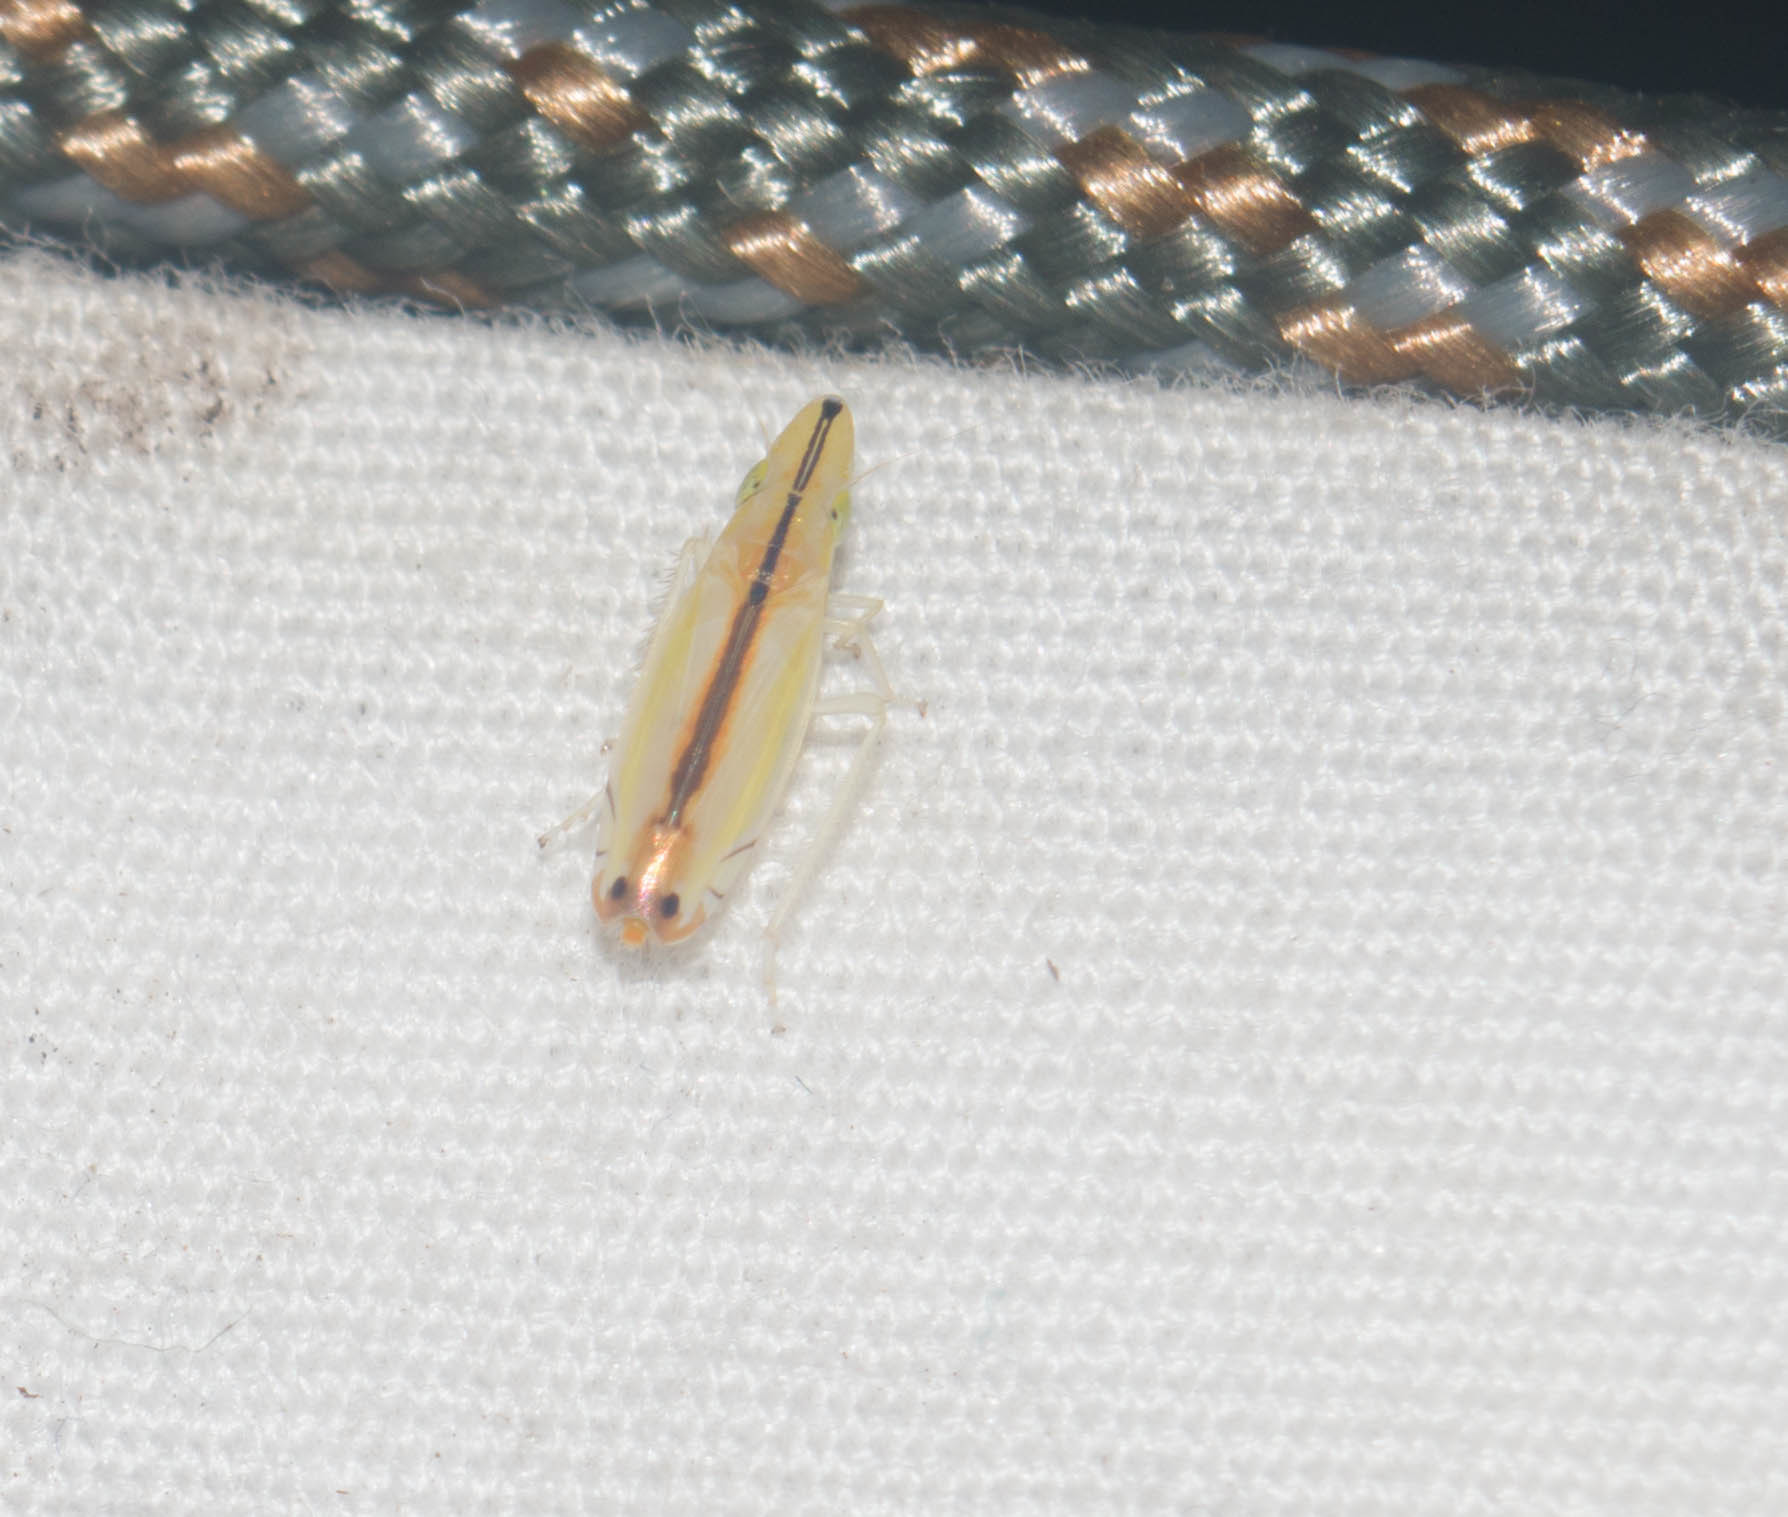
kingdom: Animalia
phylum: Arthropoda
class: Insecta
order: Hemiptera
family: Cicadellidae
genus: Sophonia
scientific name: Sophonia orientalis
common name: Two-spotted leafhopper
